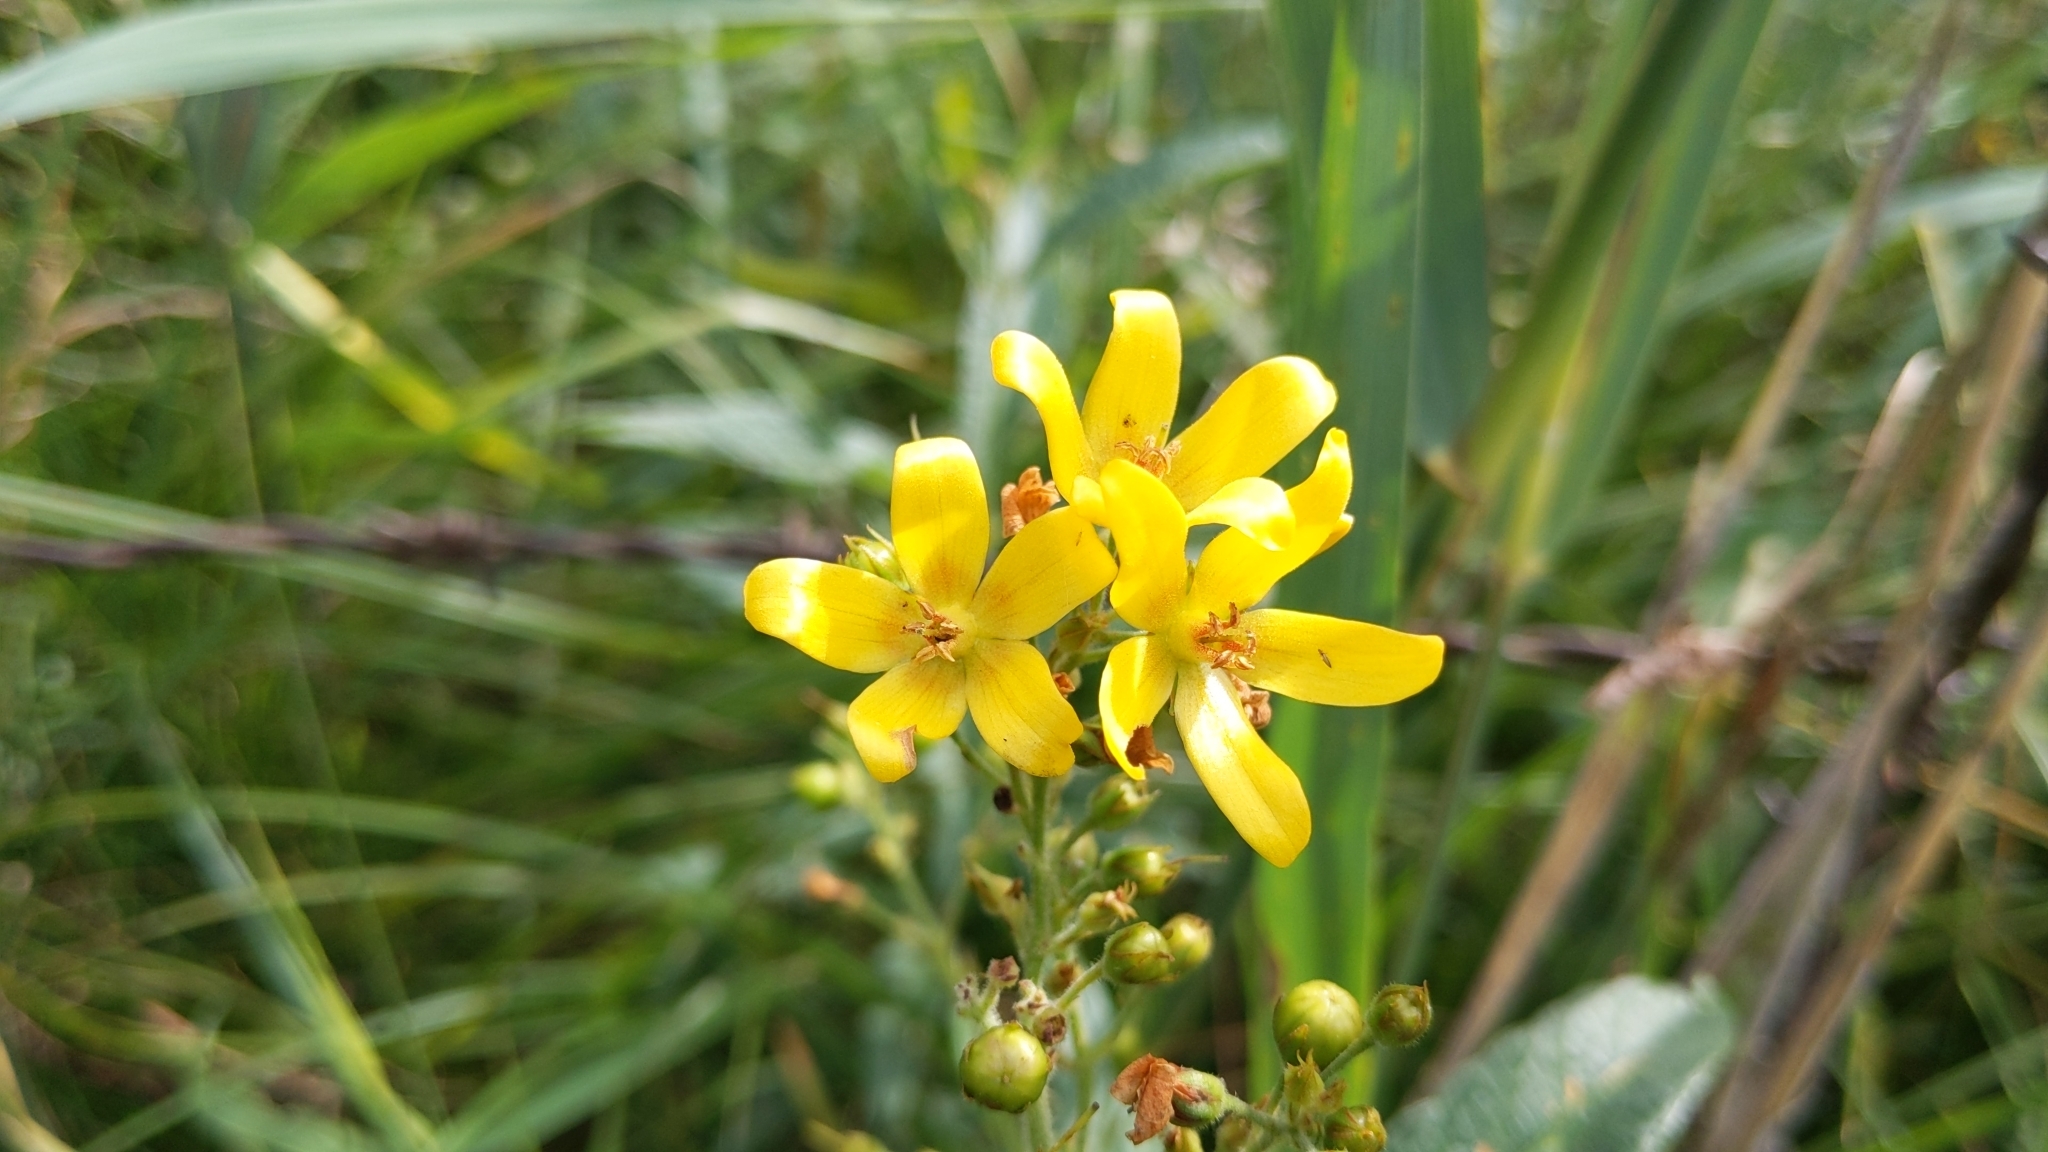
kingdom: Plantae
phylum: Tracheophyta
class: Magnoliopsida
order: Ericales
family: Primulaceae
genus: Lysimachia
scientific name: Lysimachia vulgaris
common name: Yellow loosestrife
